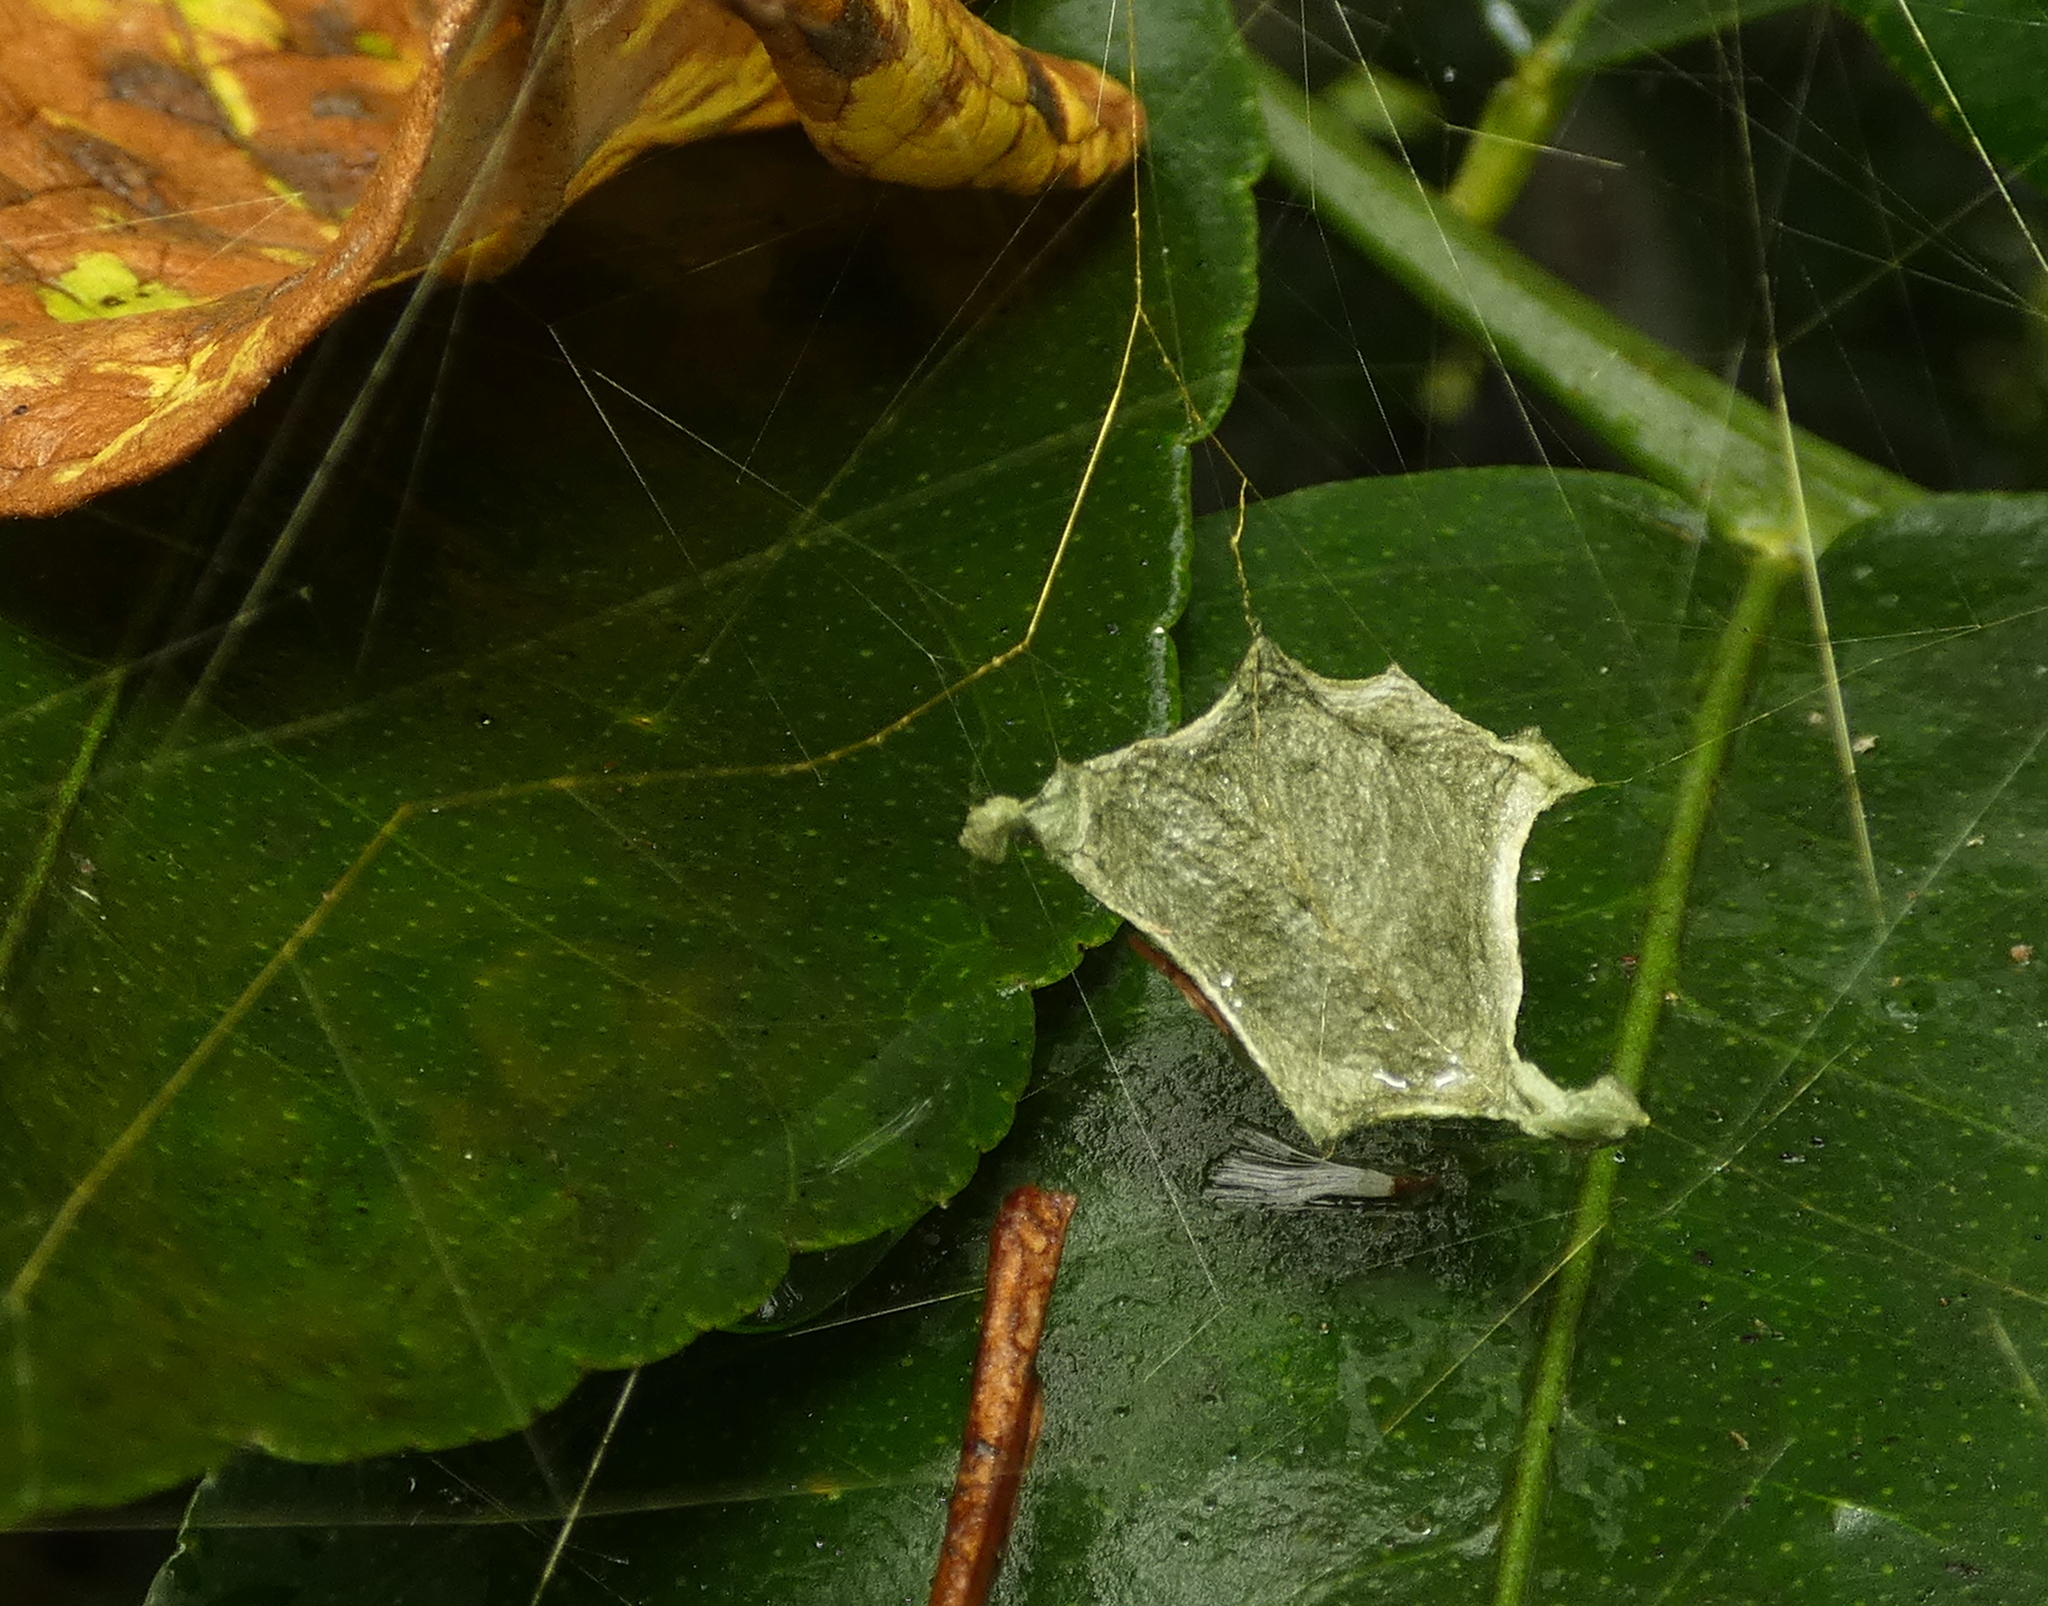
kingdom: Animalia
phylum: Arthropoda
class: Arachnida
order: Araneae
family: Araneidae
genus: Argiope
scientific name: Argiope argentata
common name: Orb weavers
